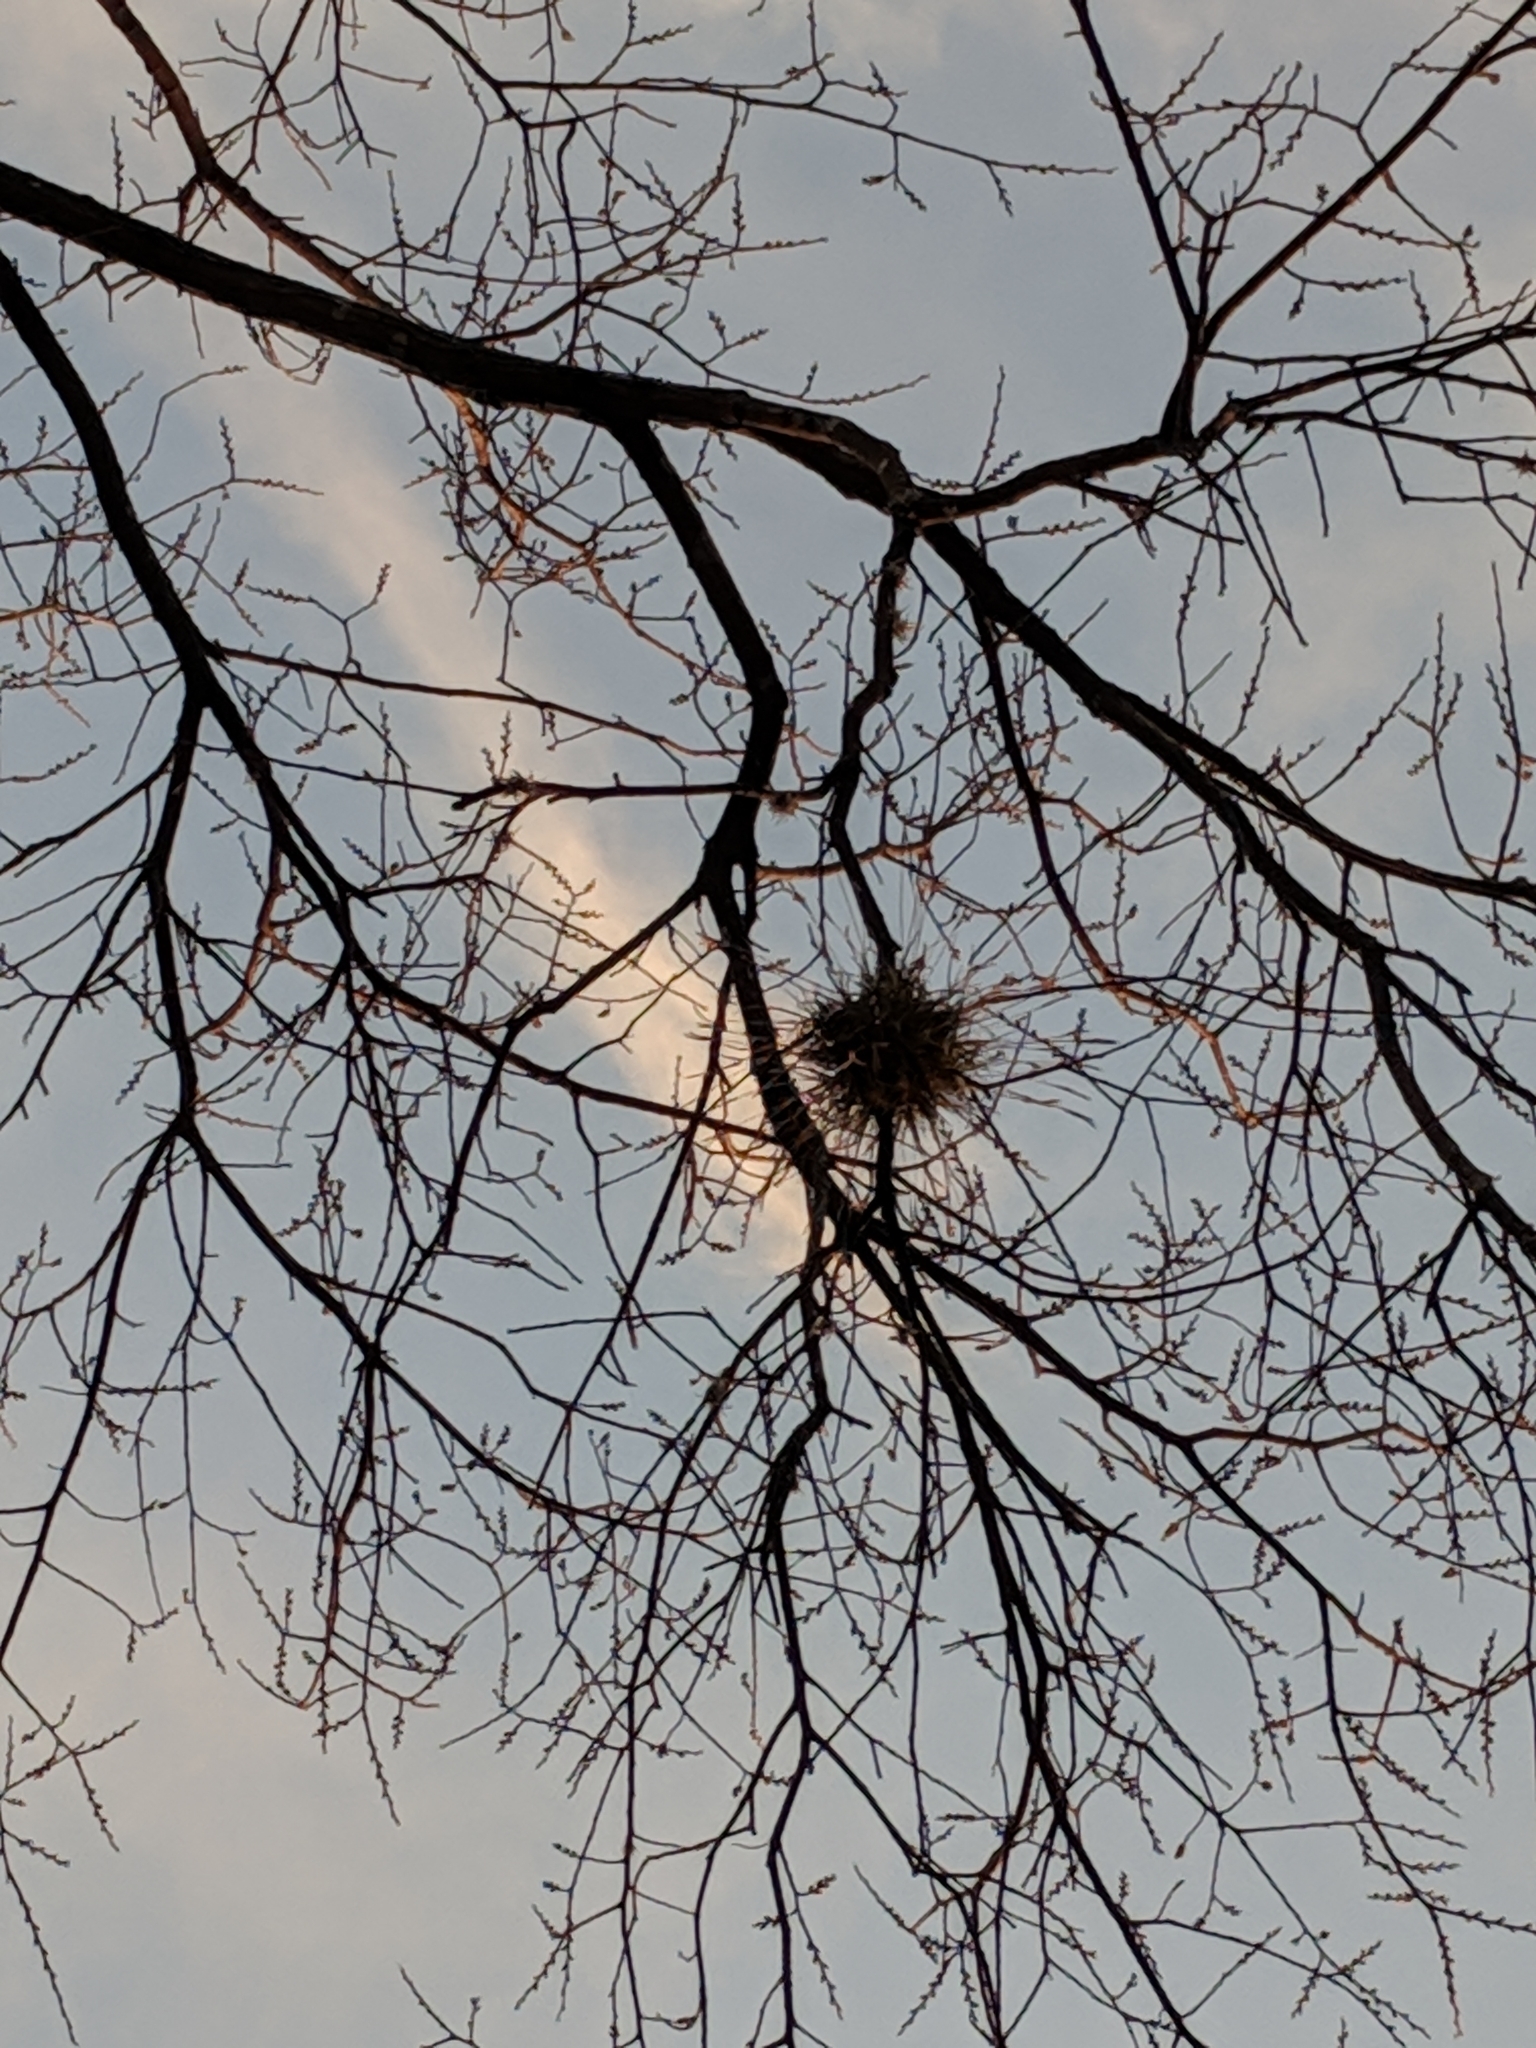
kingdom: Plantae
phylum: Tracheophyta
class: Liliopsida
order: Poales
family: Bromeliaceae
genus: Tillandsia
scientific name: Tillandsia recurvata
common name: Small ballmoss
